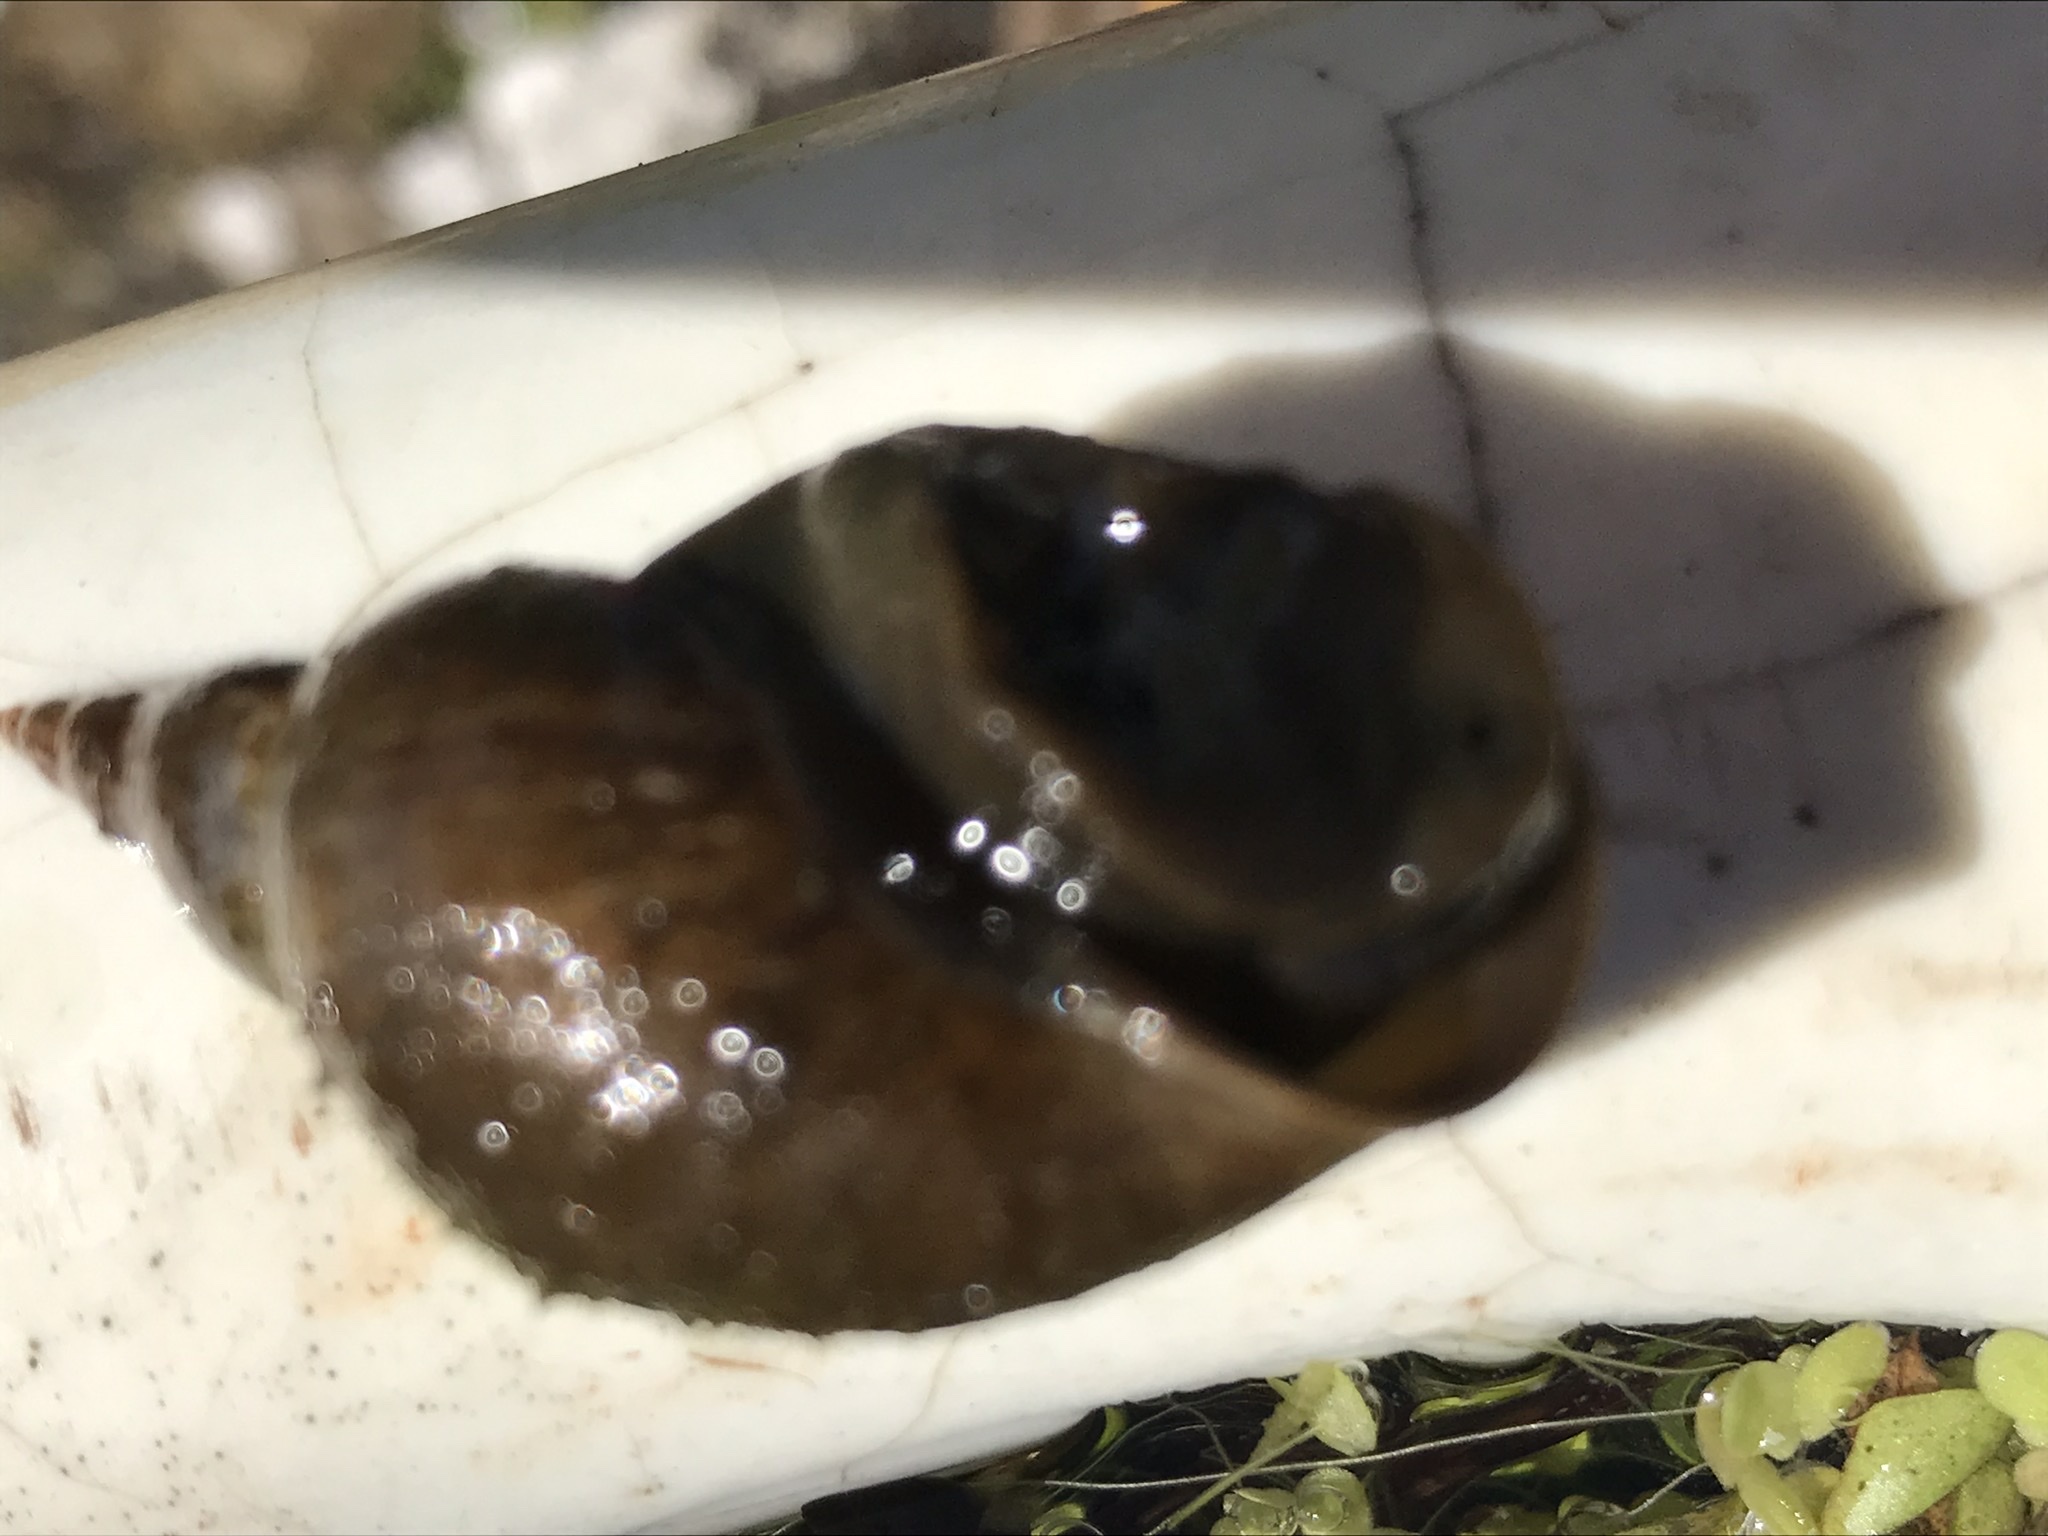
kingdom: Animalia
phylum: Mollusca
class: Gastropoda
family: Lymnaeidae
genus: Lymnaea
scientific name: Lymnaea stagnalis
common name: Great pond snail
